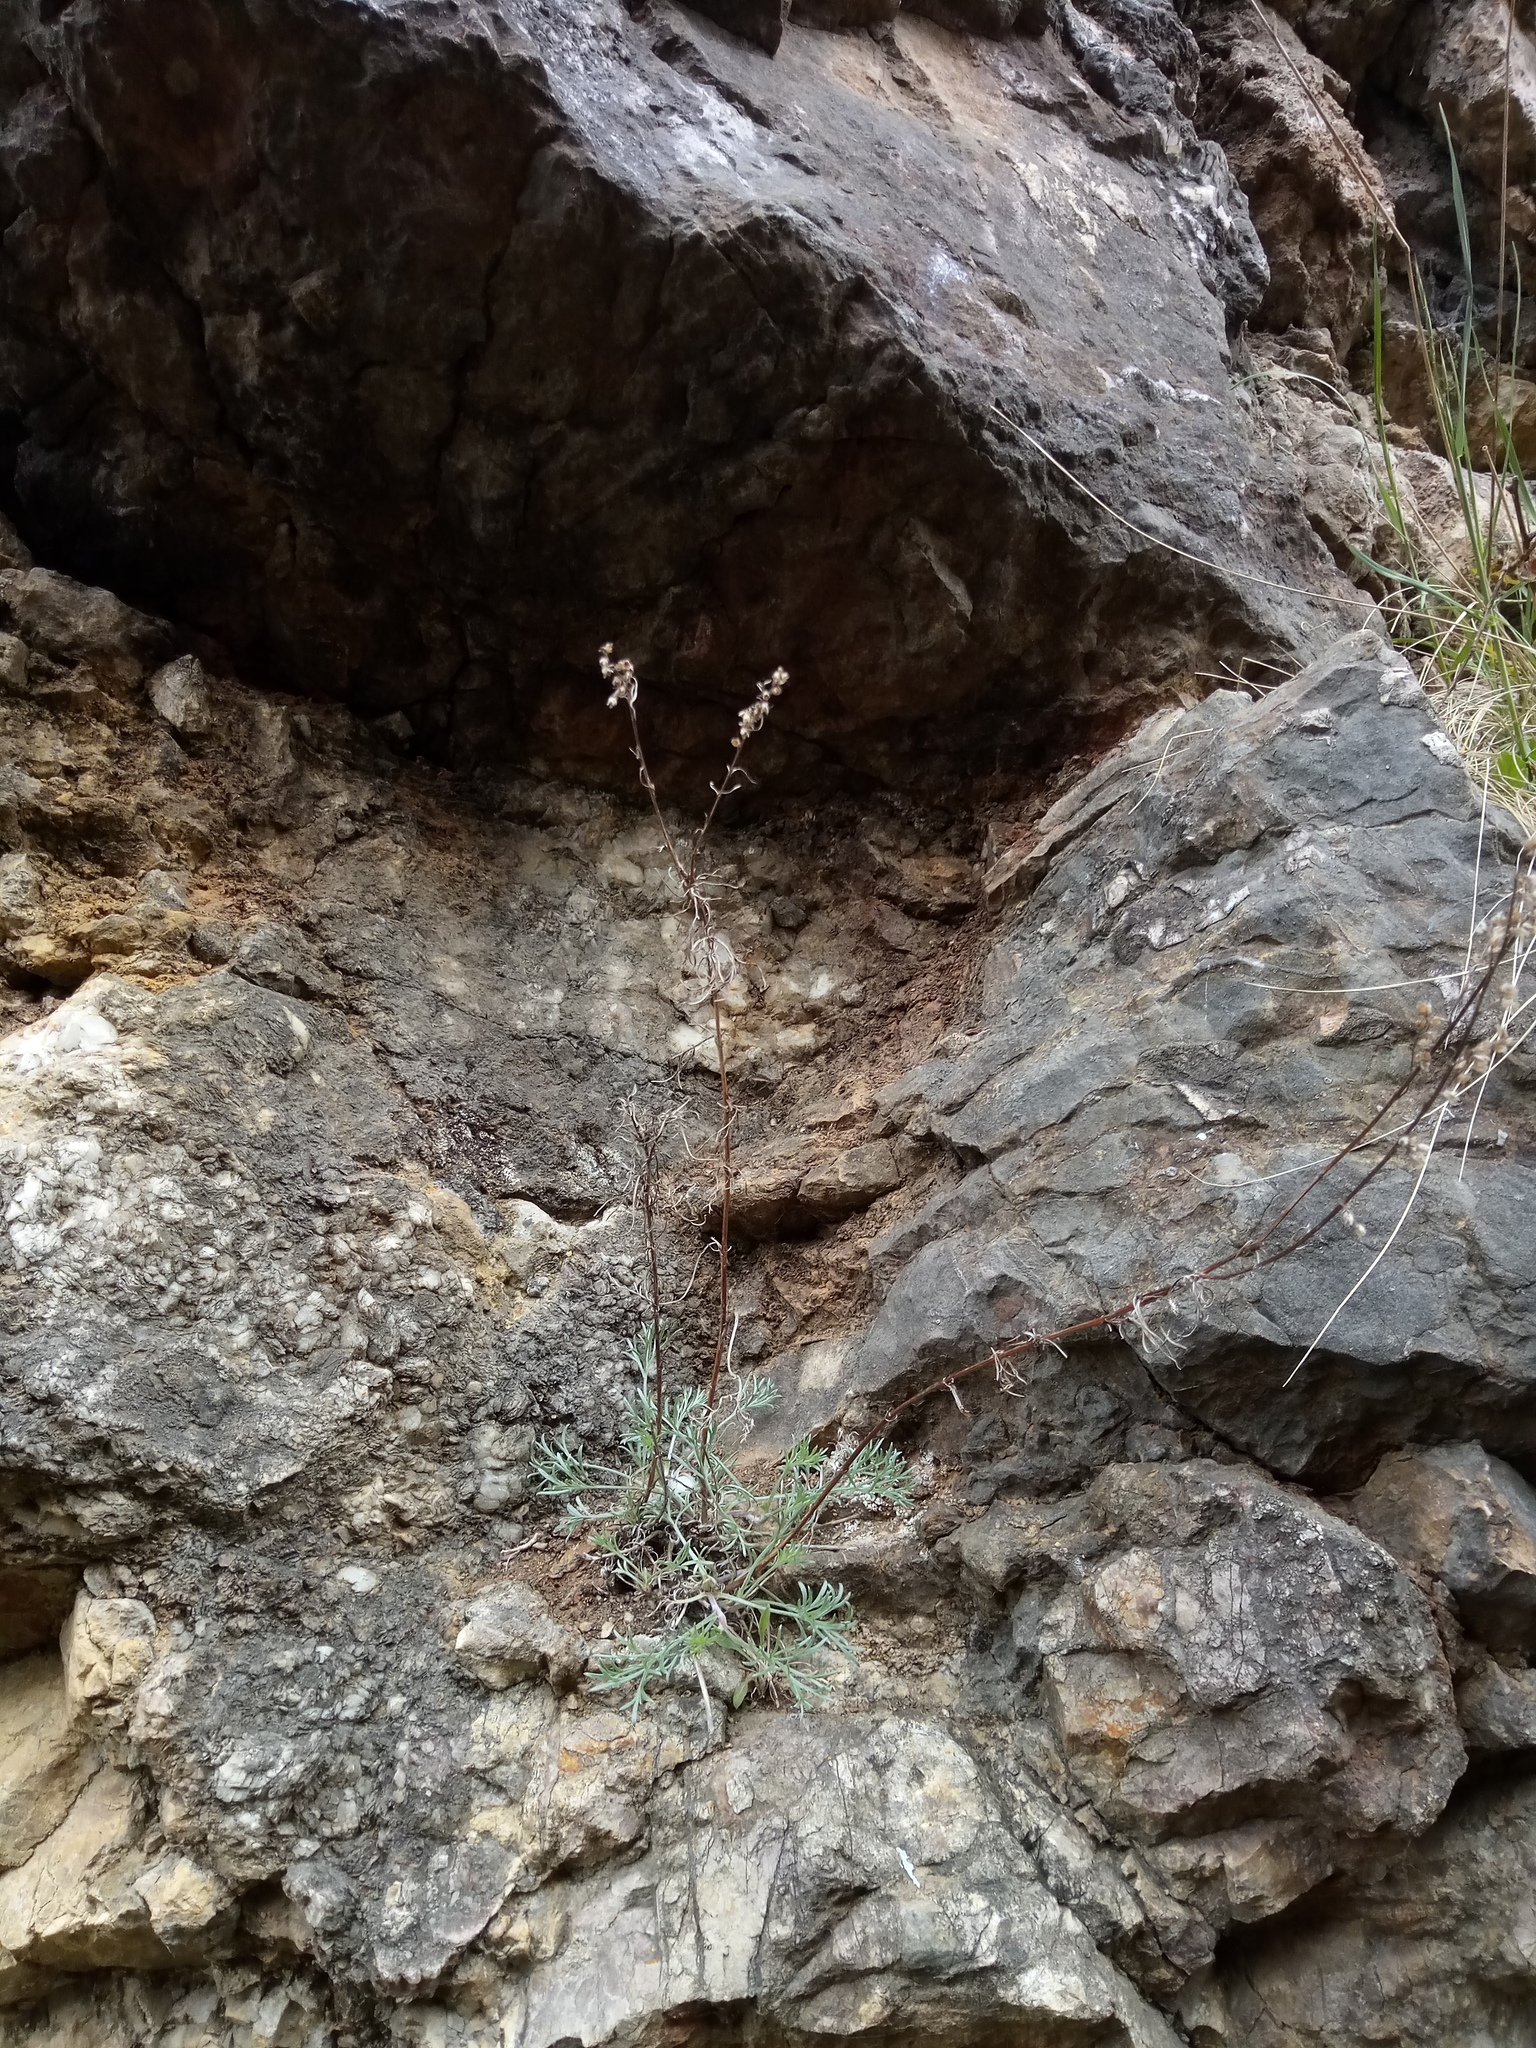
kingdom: Plantae
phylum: Tracheophyta
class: Magnoliopsida
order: Asterales
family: Asteraceae
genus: Artemisia
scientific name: Artemisia campestris
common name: Field wormwood
